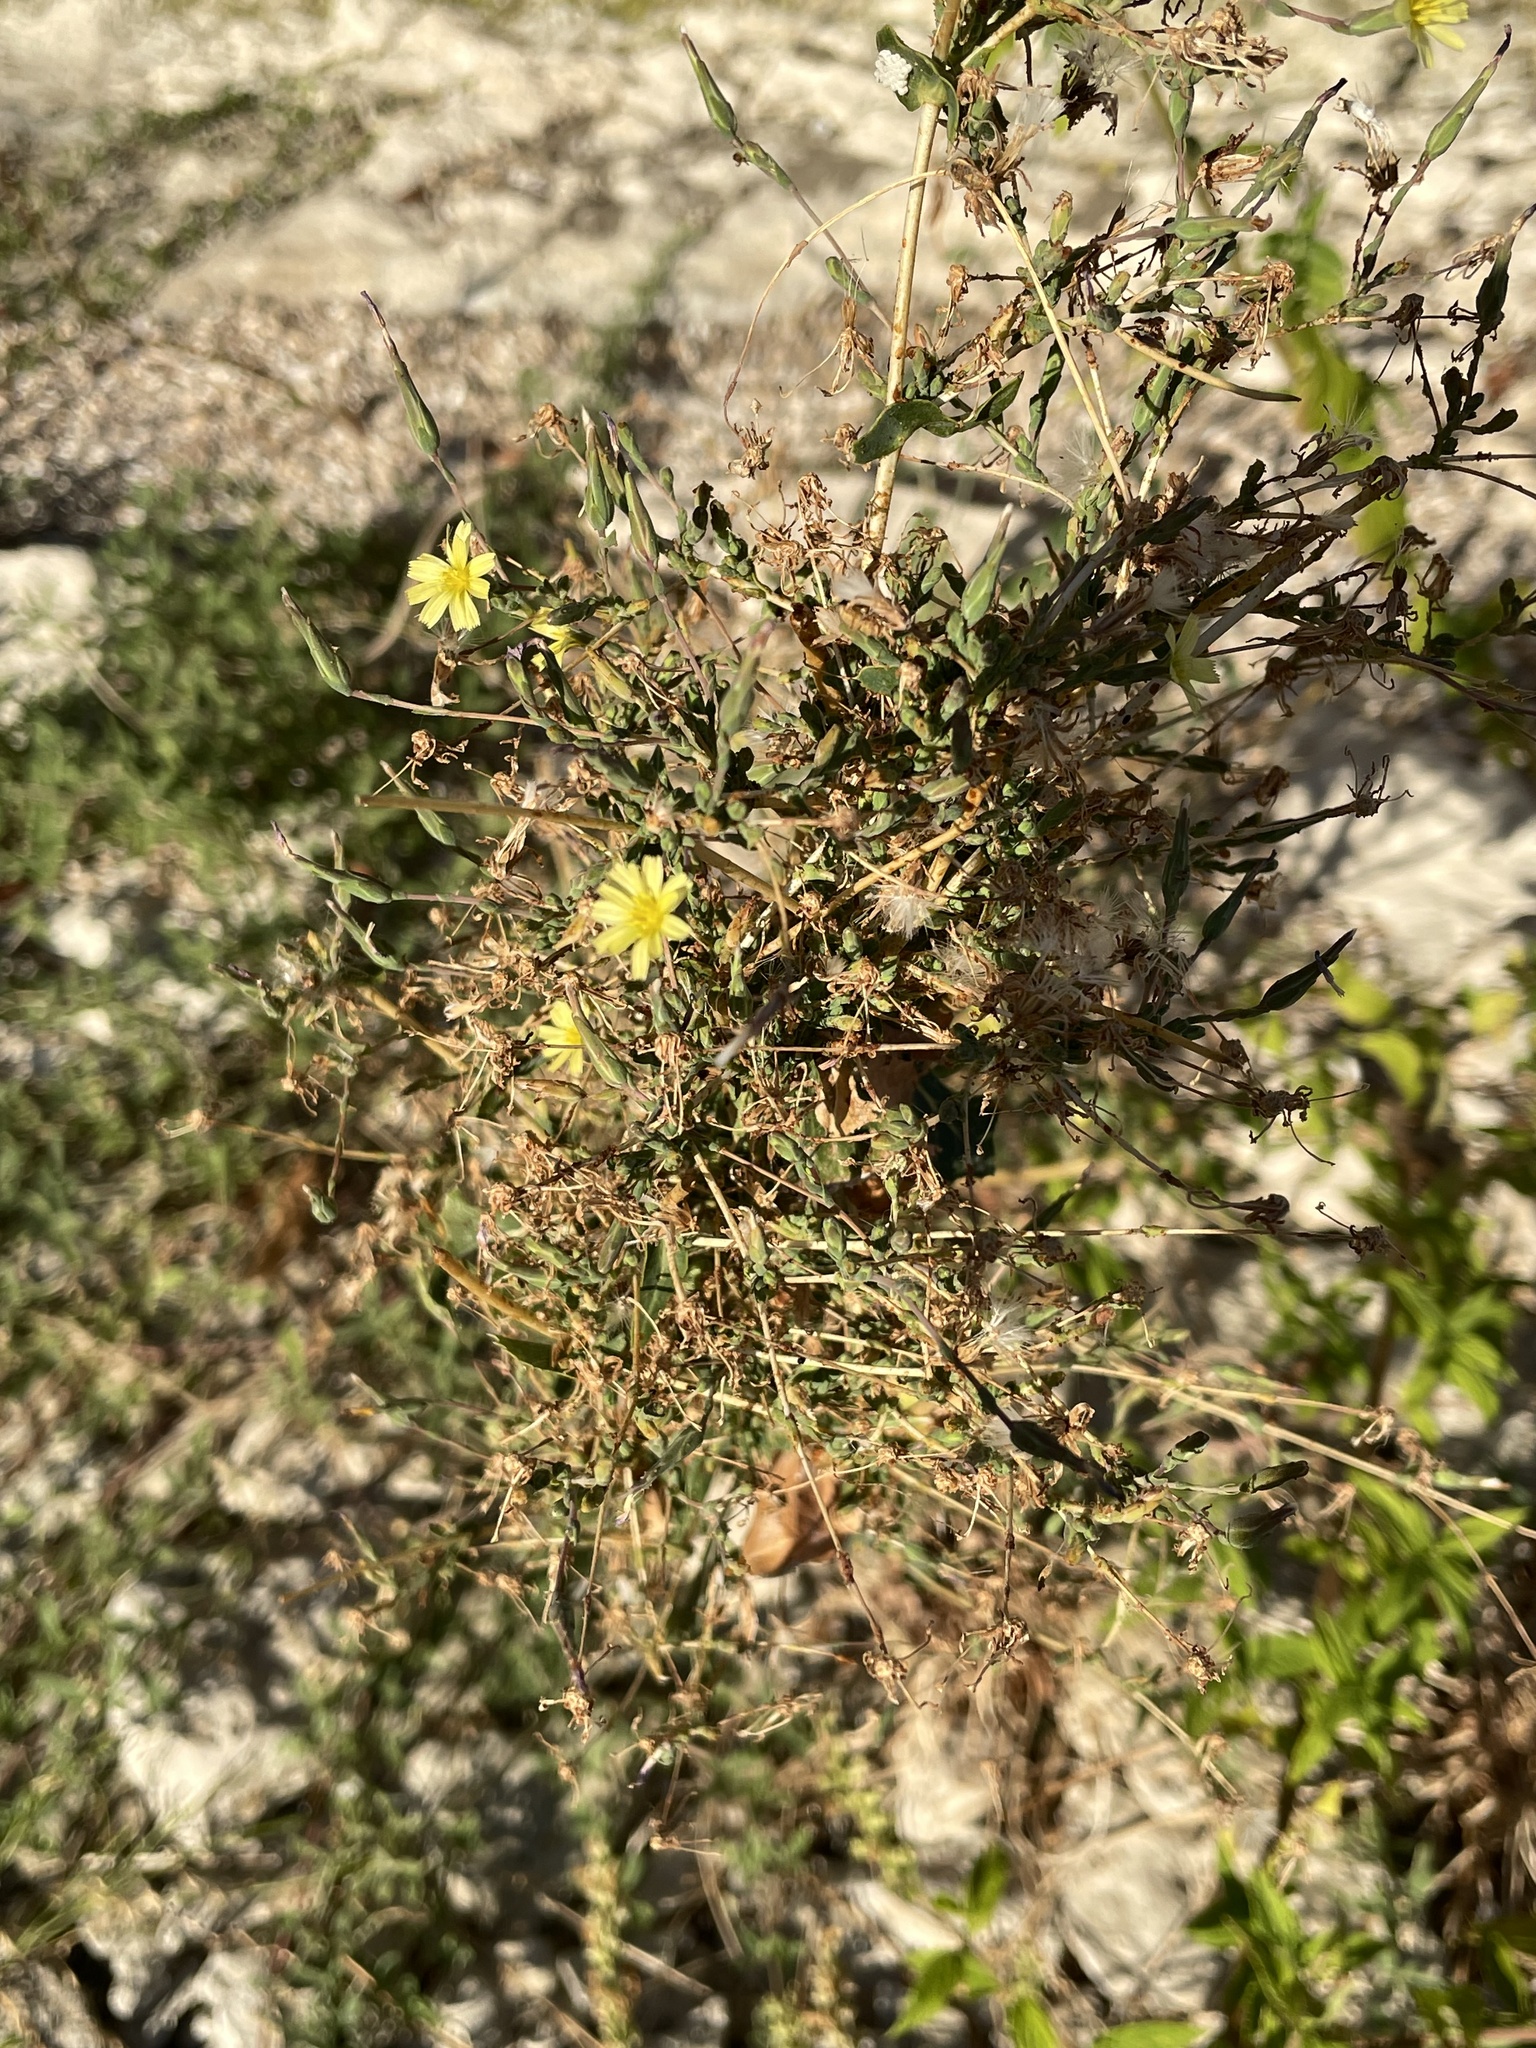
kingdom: Plantae
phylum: Tracheophyta
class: Magnoliopsida
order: Asterales
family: Asteraceae
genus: Lactuca
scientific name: Lactuca serriola
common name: Prickly lettuce
